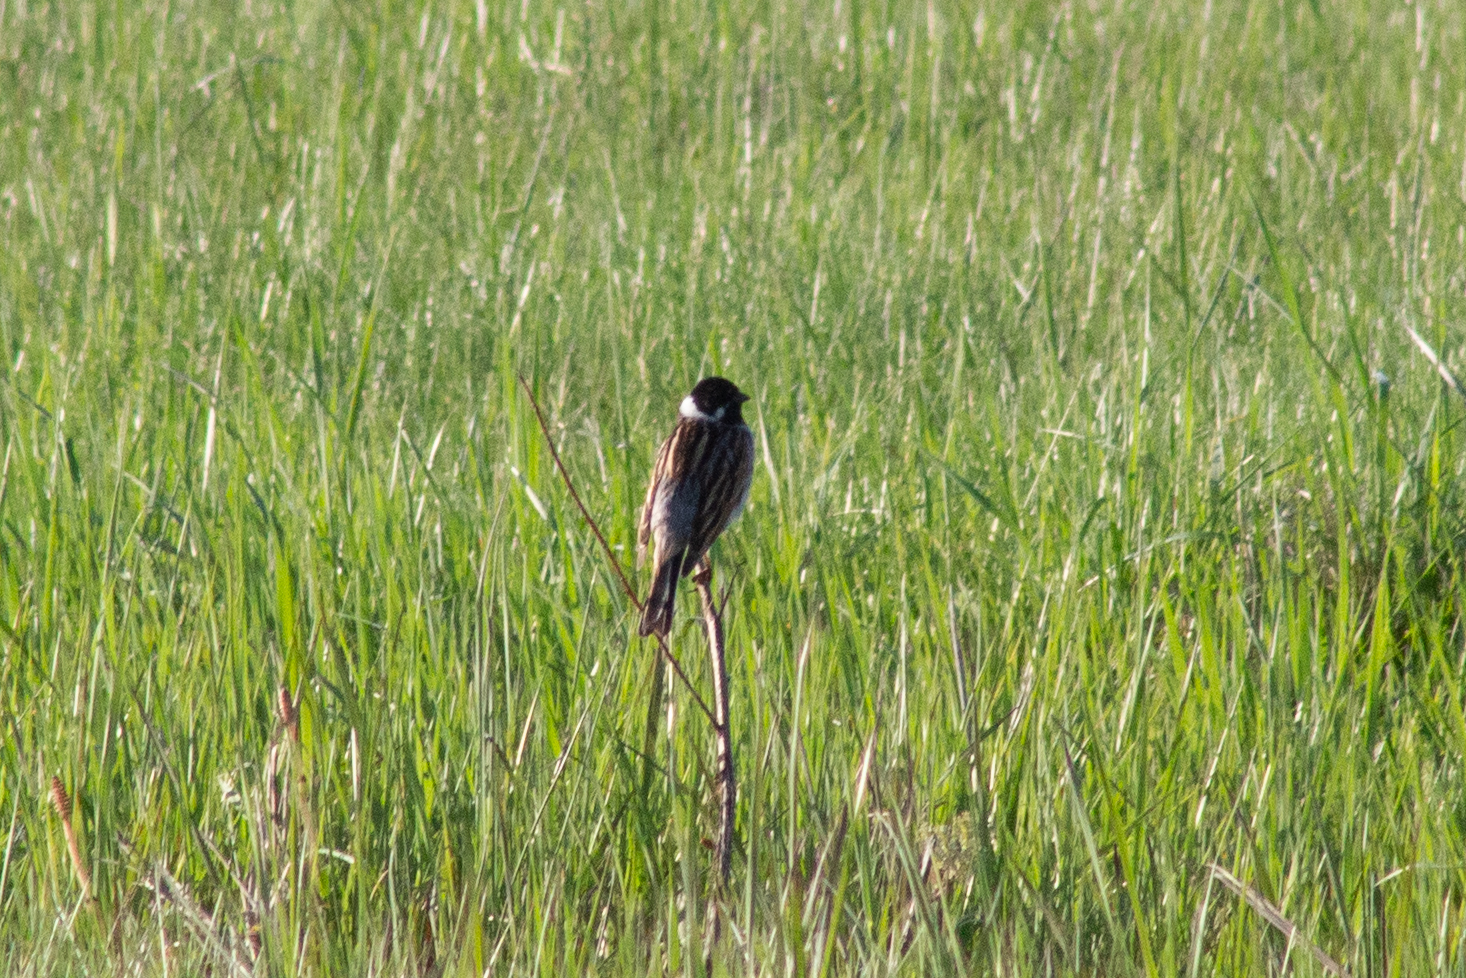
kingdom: Animalia
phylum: Chordata
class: Aves
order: Passeriformes
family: Emberizidae
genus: Emberiza
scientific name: Emberiza schoeniclus
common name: Reed bunting
